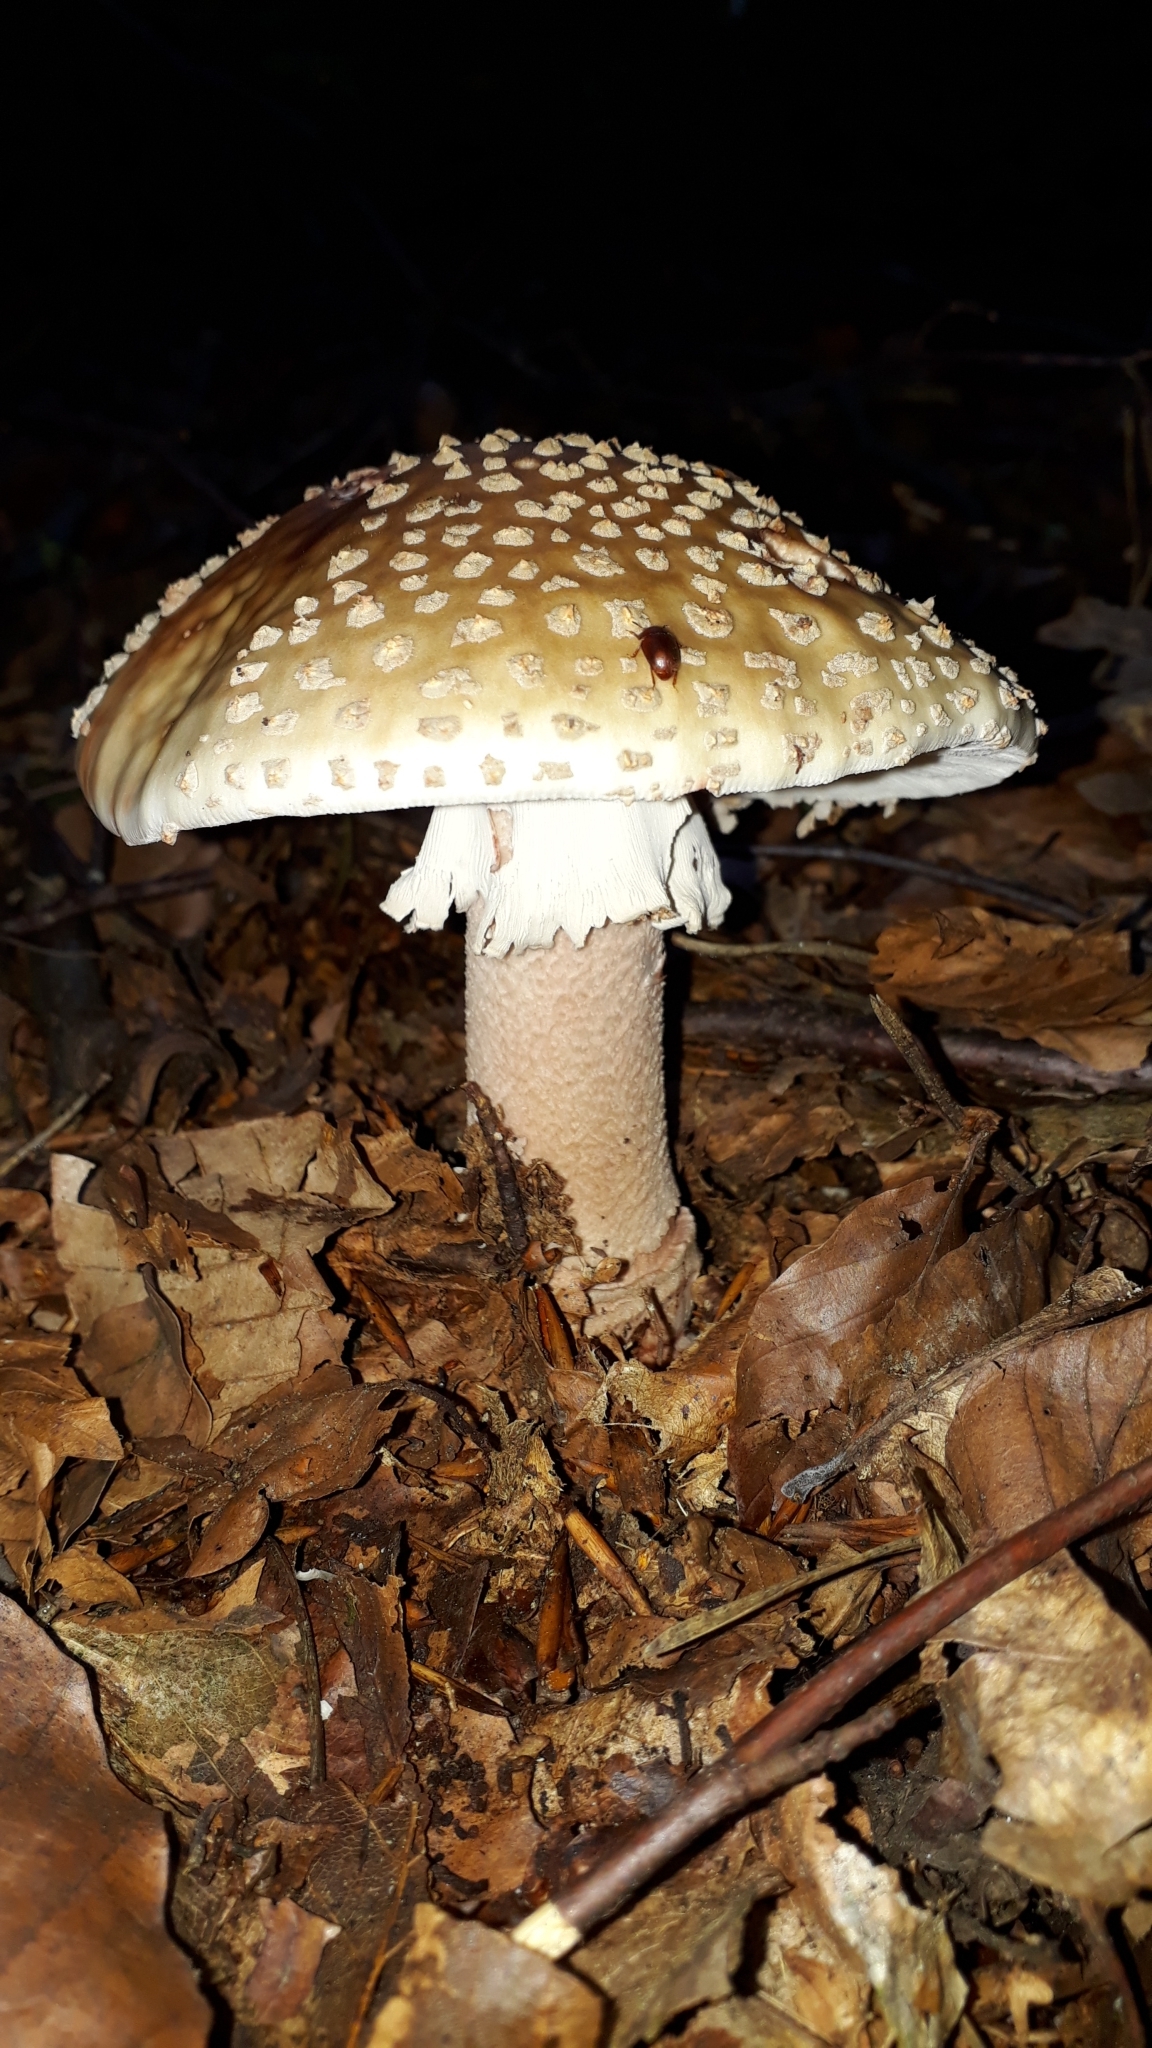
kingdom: Fungi
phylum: Basidiomycota
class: Agaricomycetes
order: Agaricales
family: Amanitaceae
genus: Amanita
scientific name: Amanita rubescens
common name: Blusher
